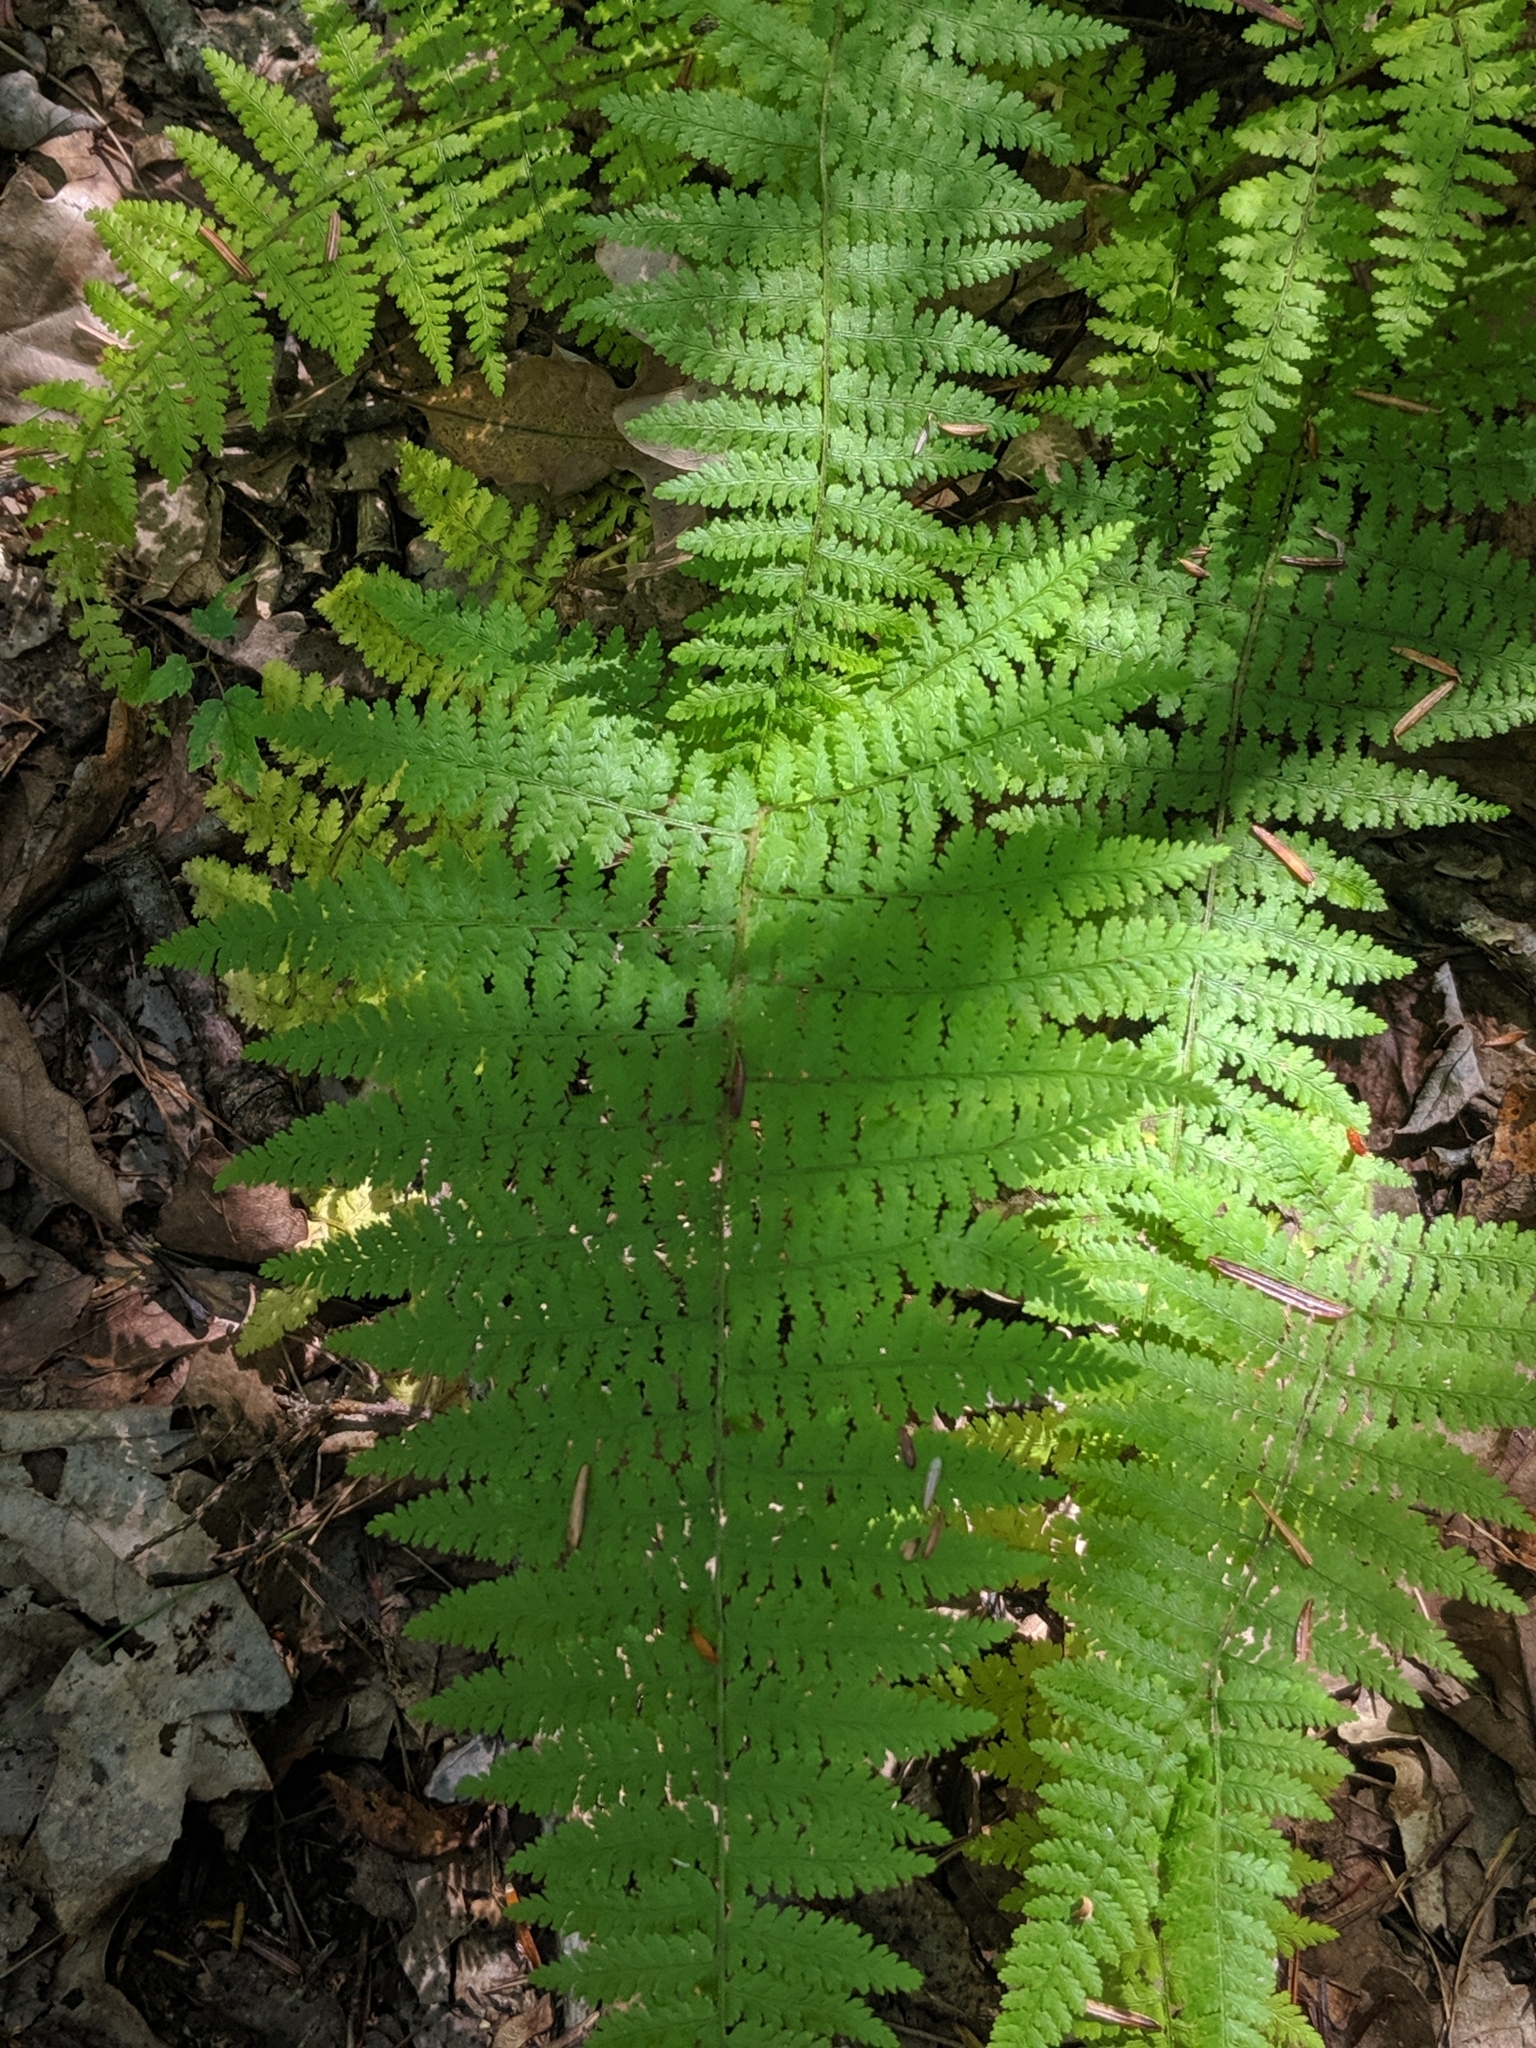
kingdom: Plantae
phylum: Tracheophyta
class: Polypodiopsida
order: Polypodiales
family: Dennstaedtiaceae
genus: Sitobolium
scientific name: Sitobolium punctilobum
